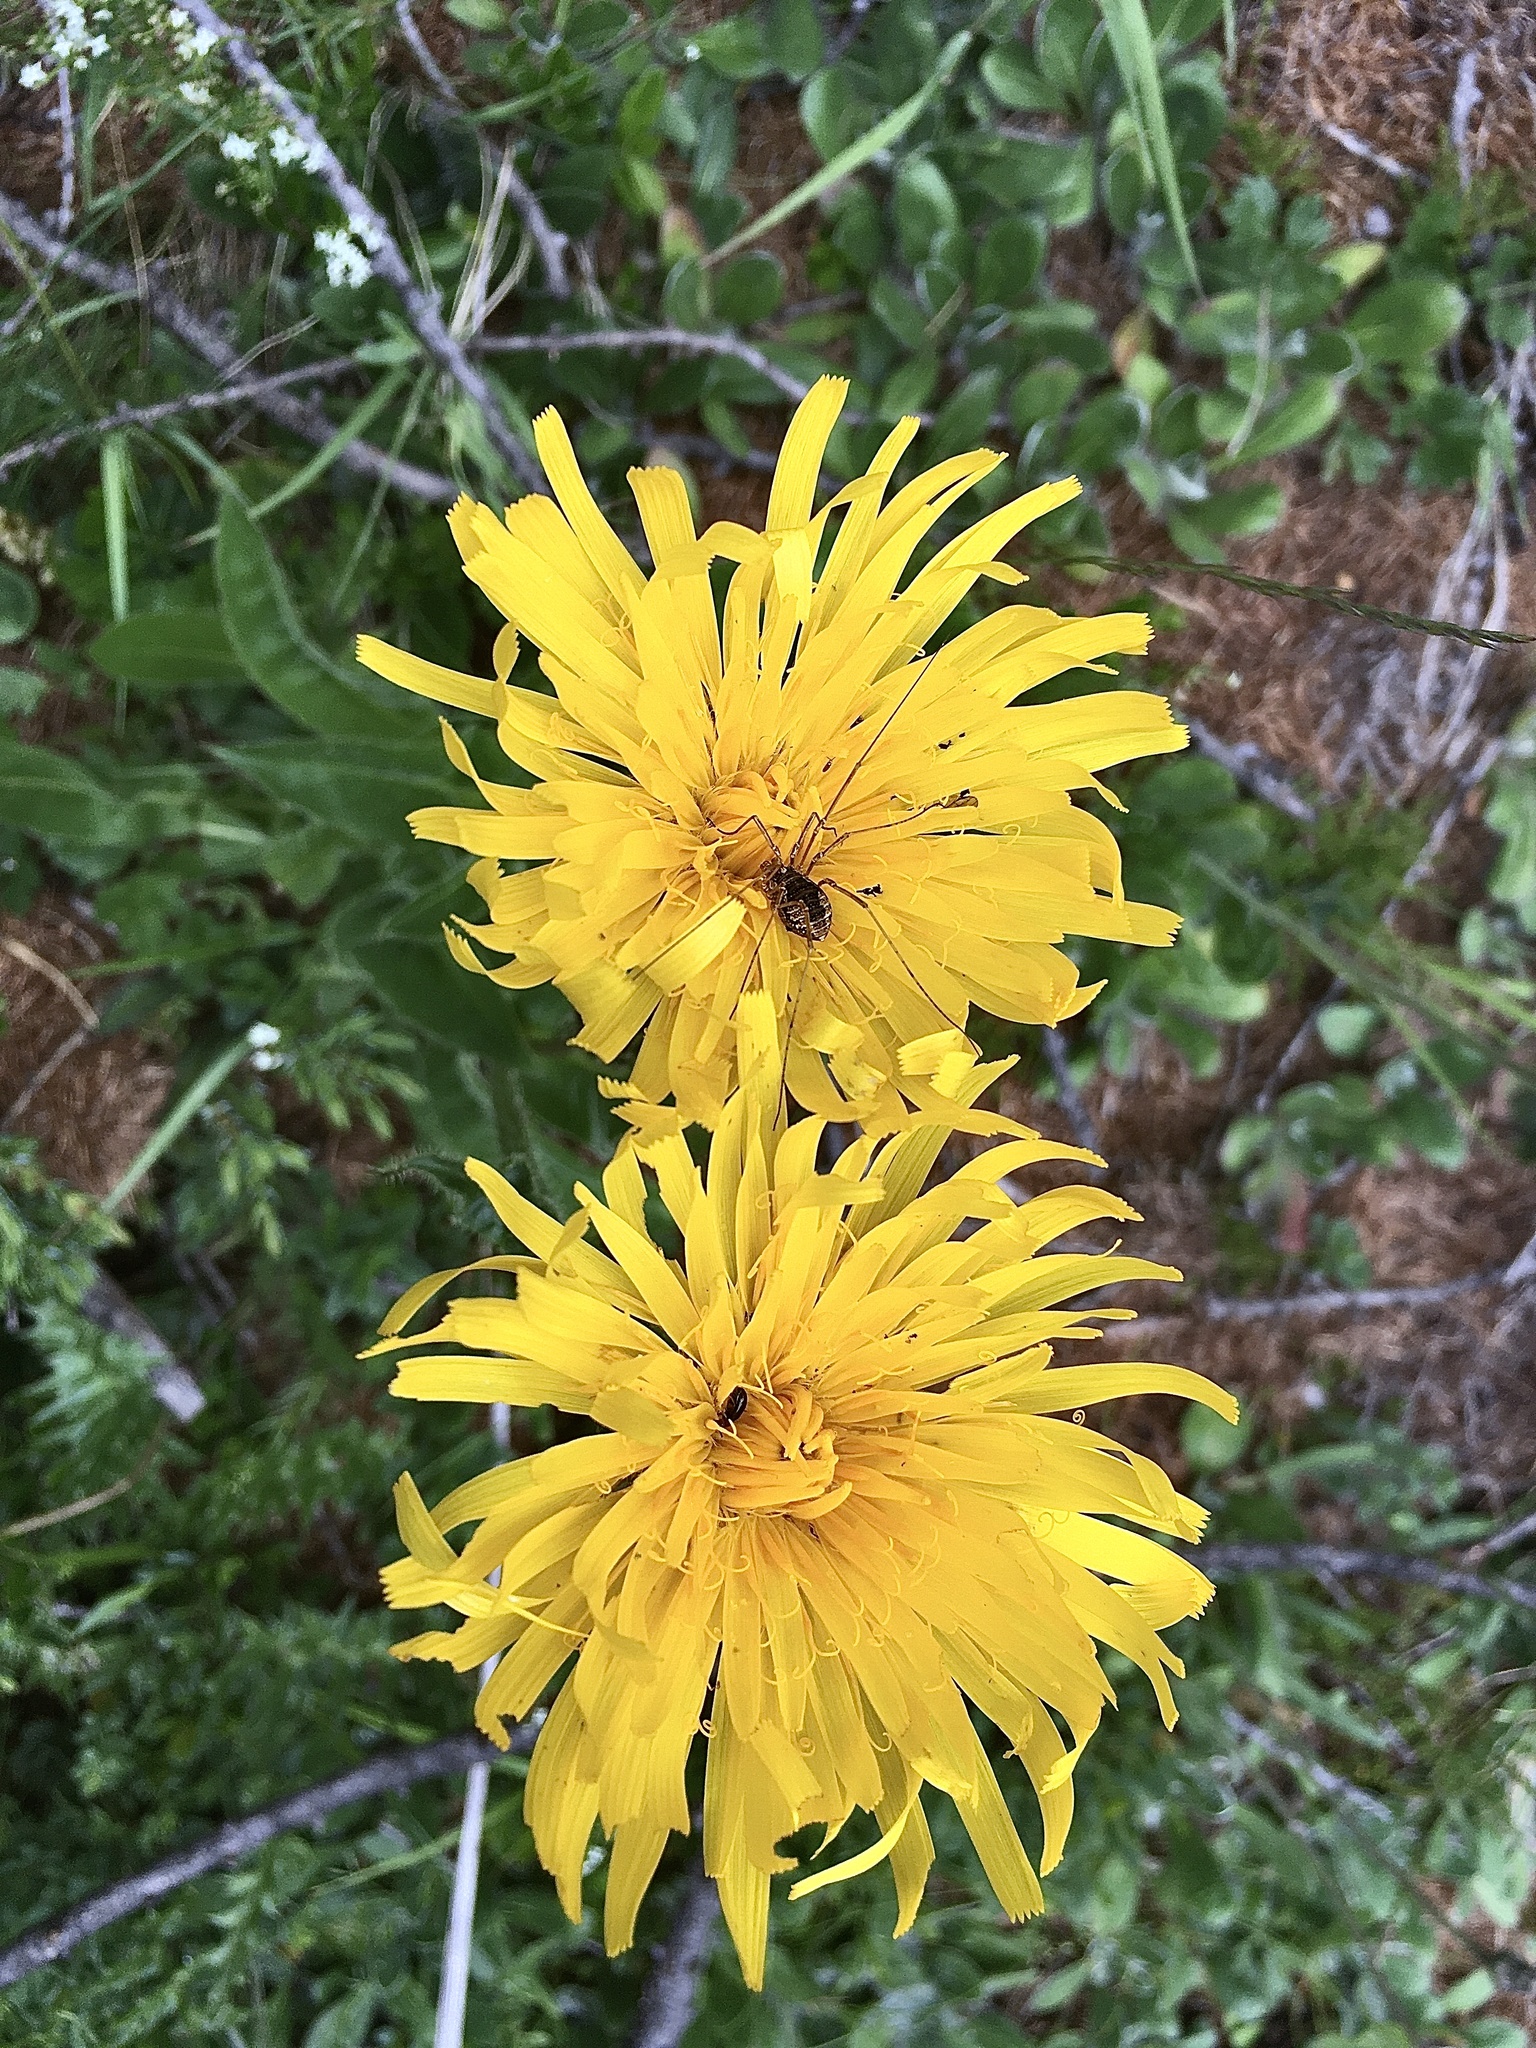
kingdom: Plantae
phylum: Tracheophyta
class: Magnoliopsida
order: Asterales
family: Asteraceae
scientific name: Asteraceae
